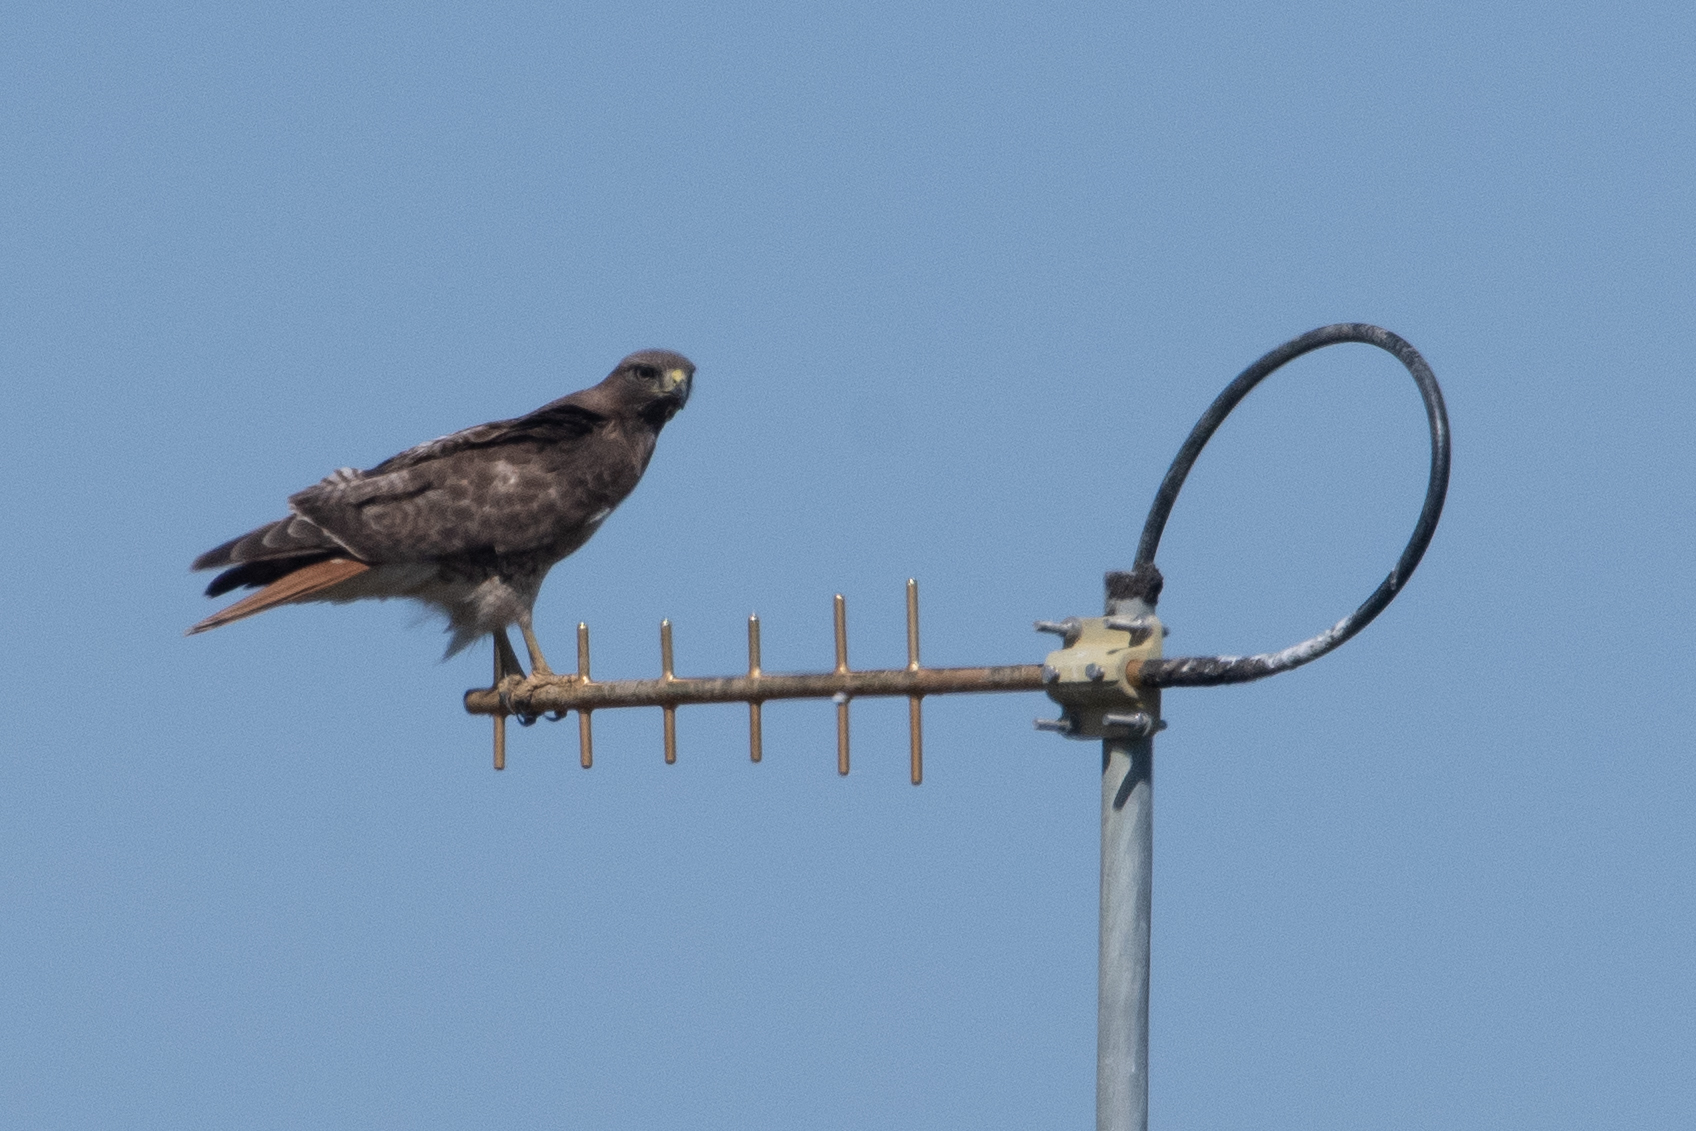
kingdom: Animalia
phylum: Chordata
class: Aves
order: Accipitriformes
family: Accipitridae
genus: Buteo
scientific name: Buteo jamaicensis
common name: Red-tailed hawk
